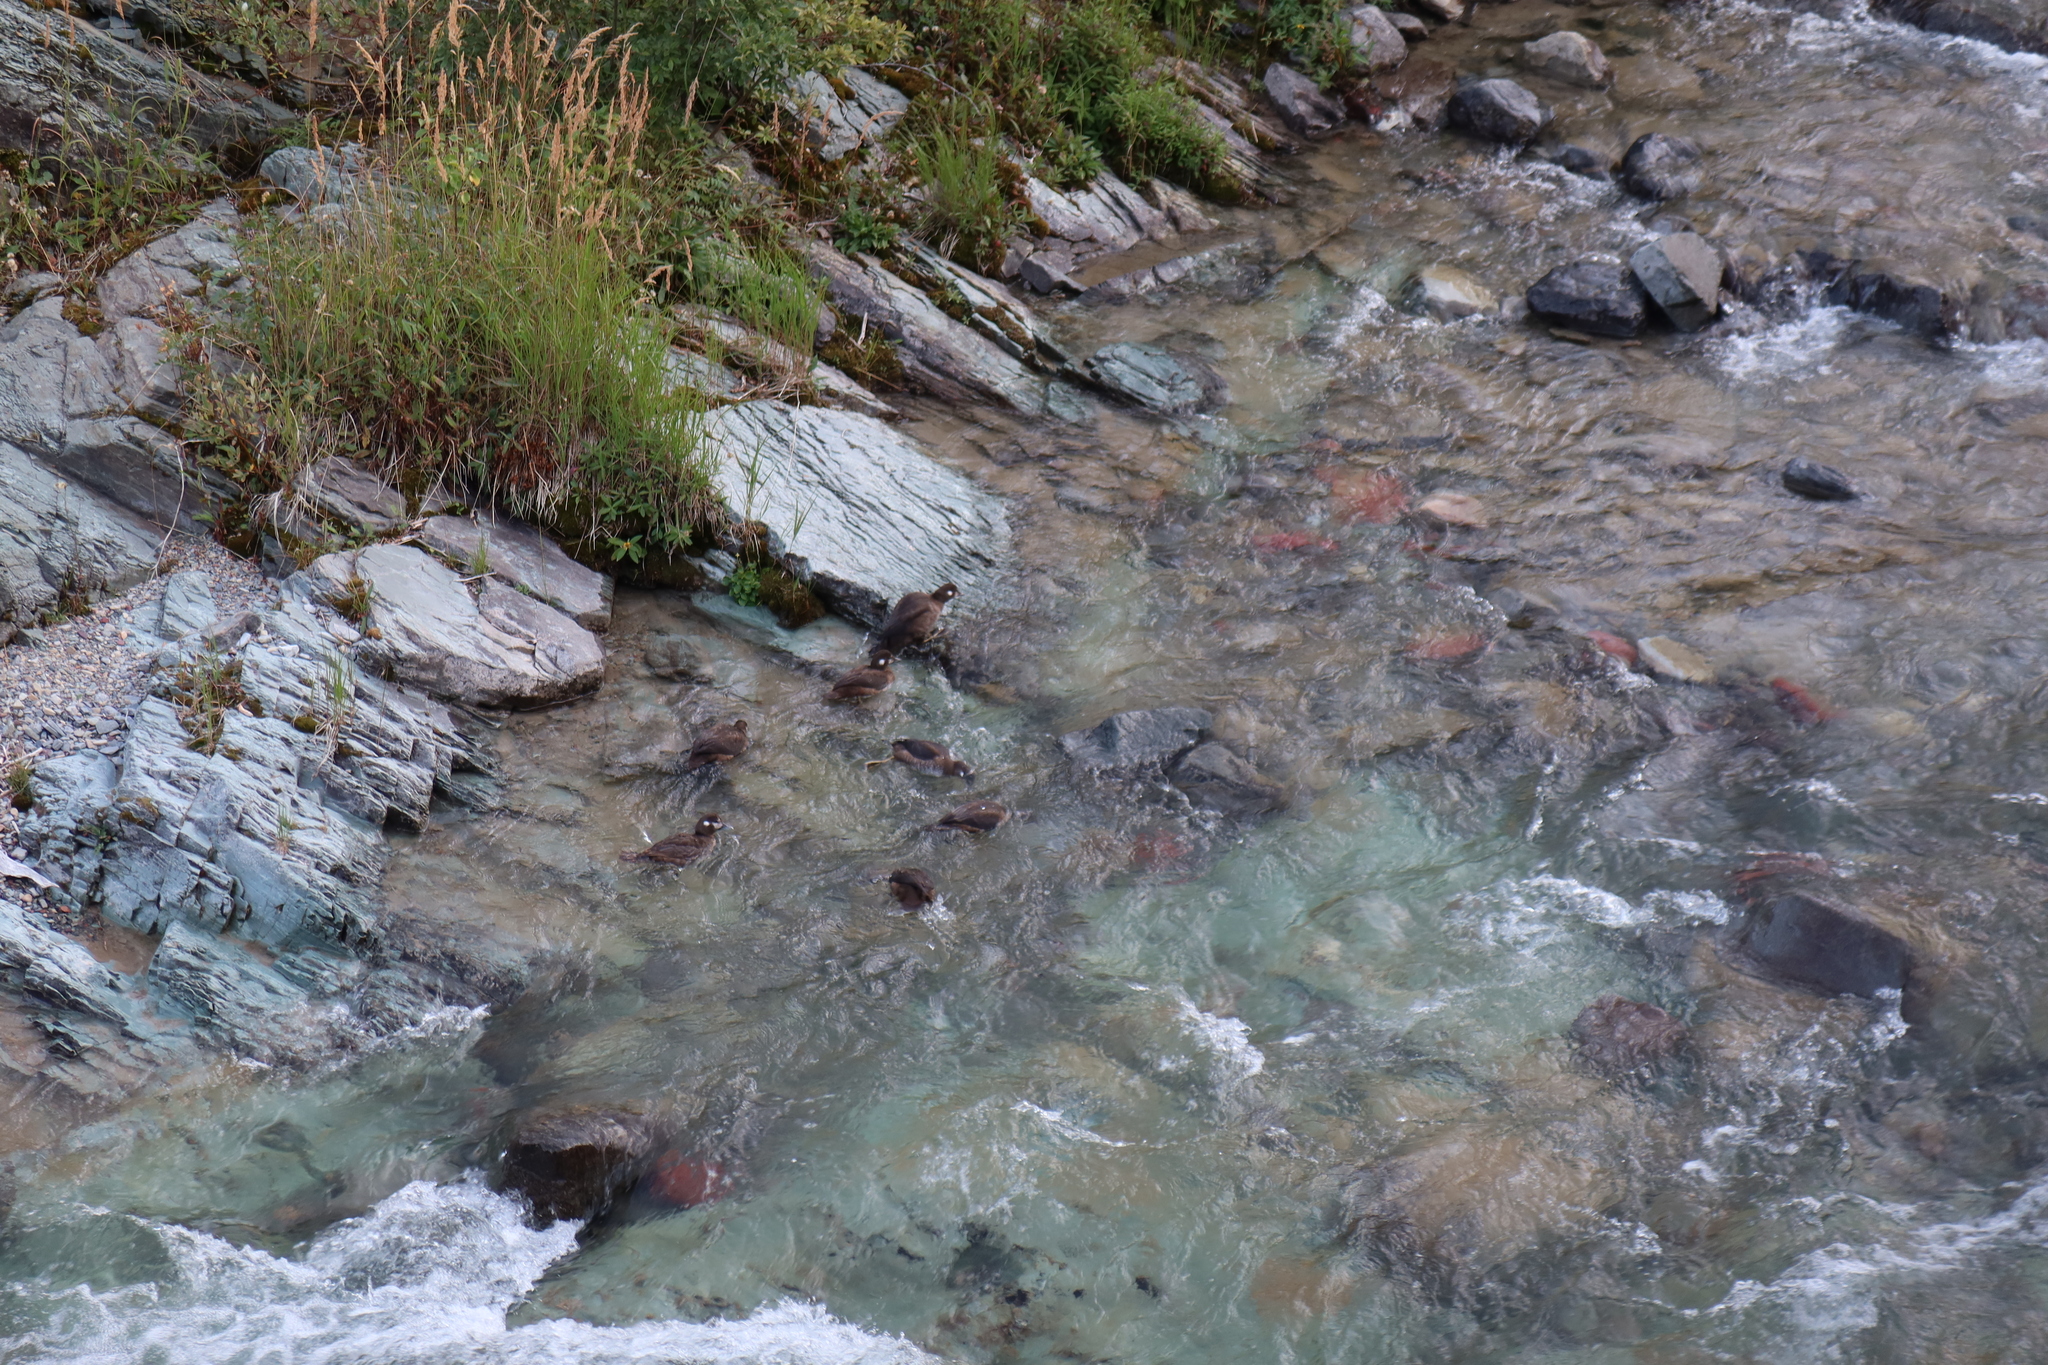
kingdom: Animalia
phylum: Chordata
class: Aves
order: Anseriformes
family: Anatidae
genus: Histrionicus
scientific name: Histrionicus histrionicus
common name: Harlequin duck
